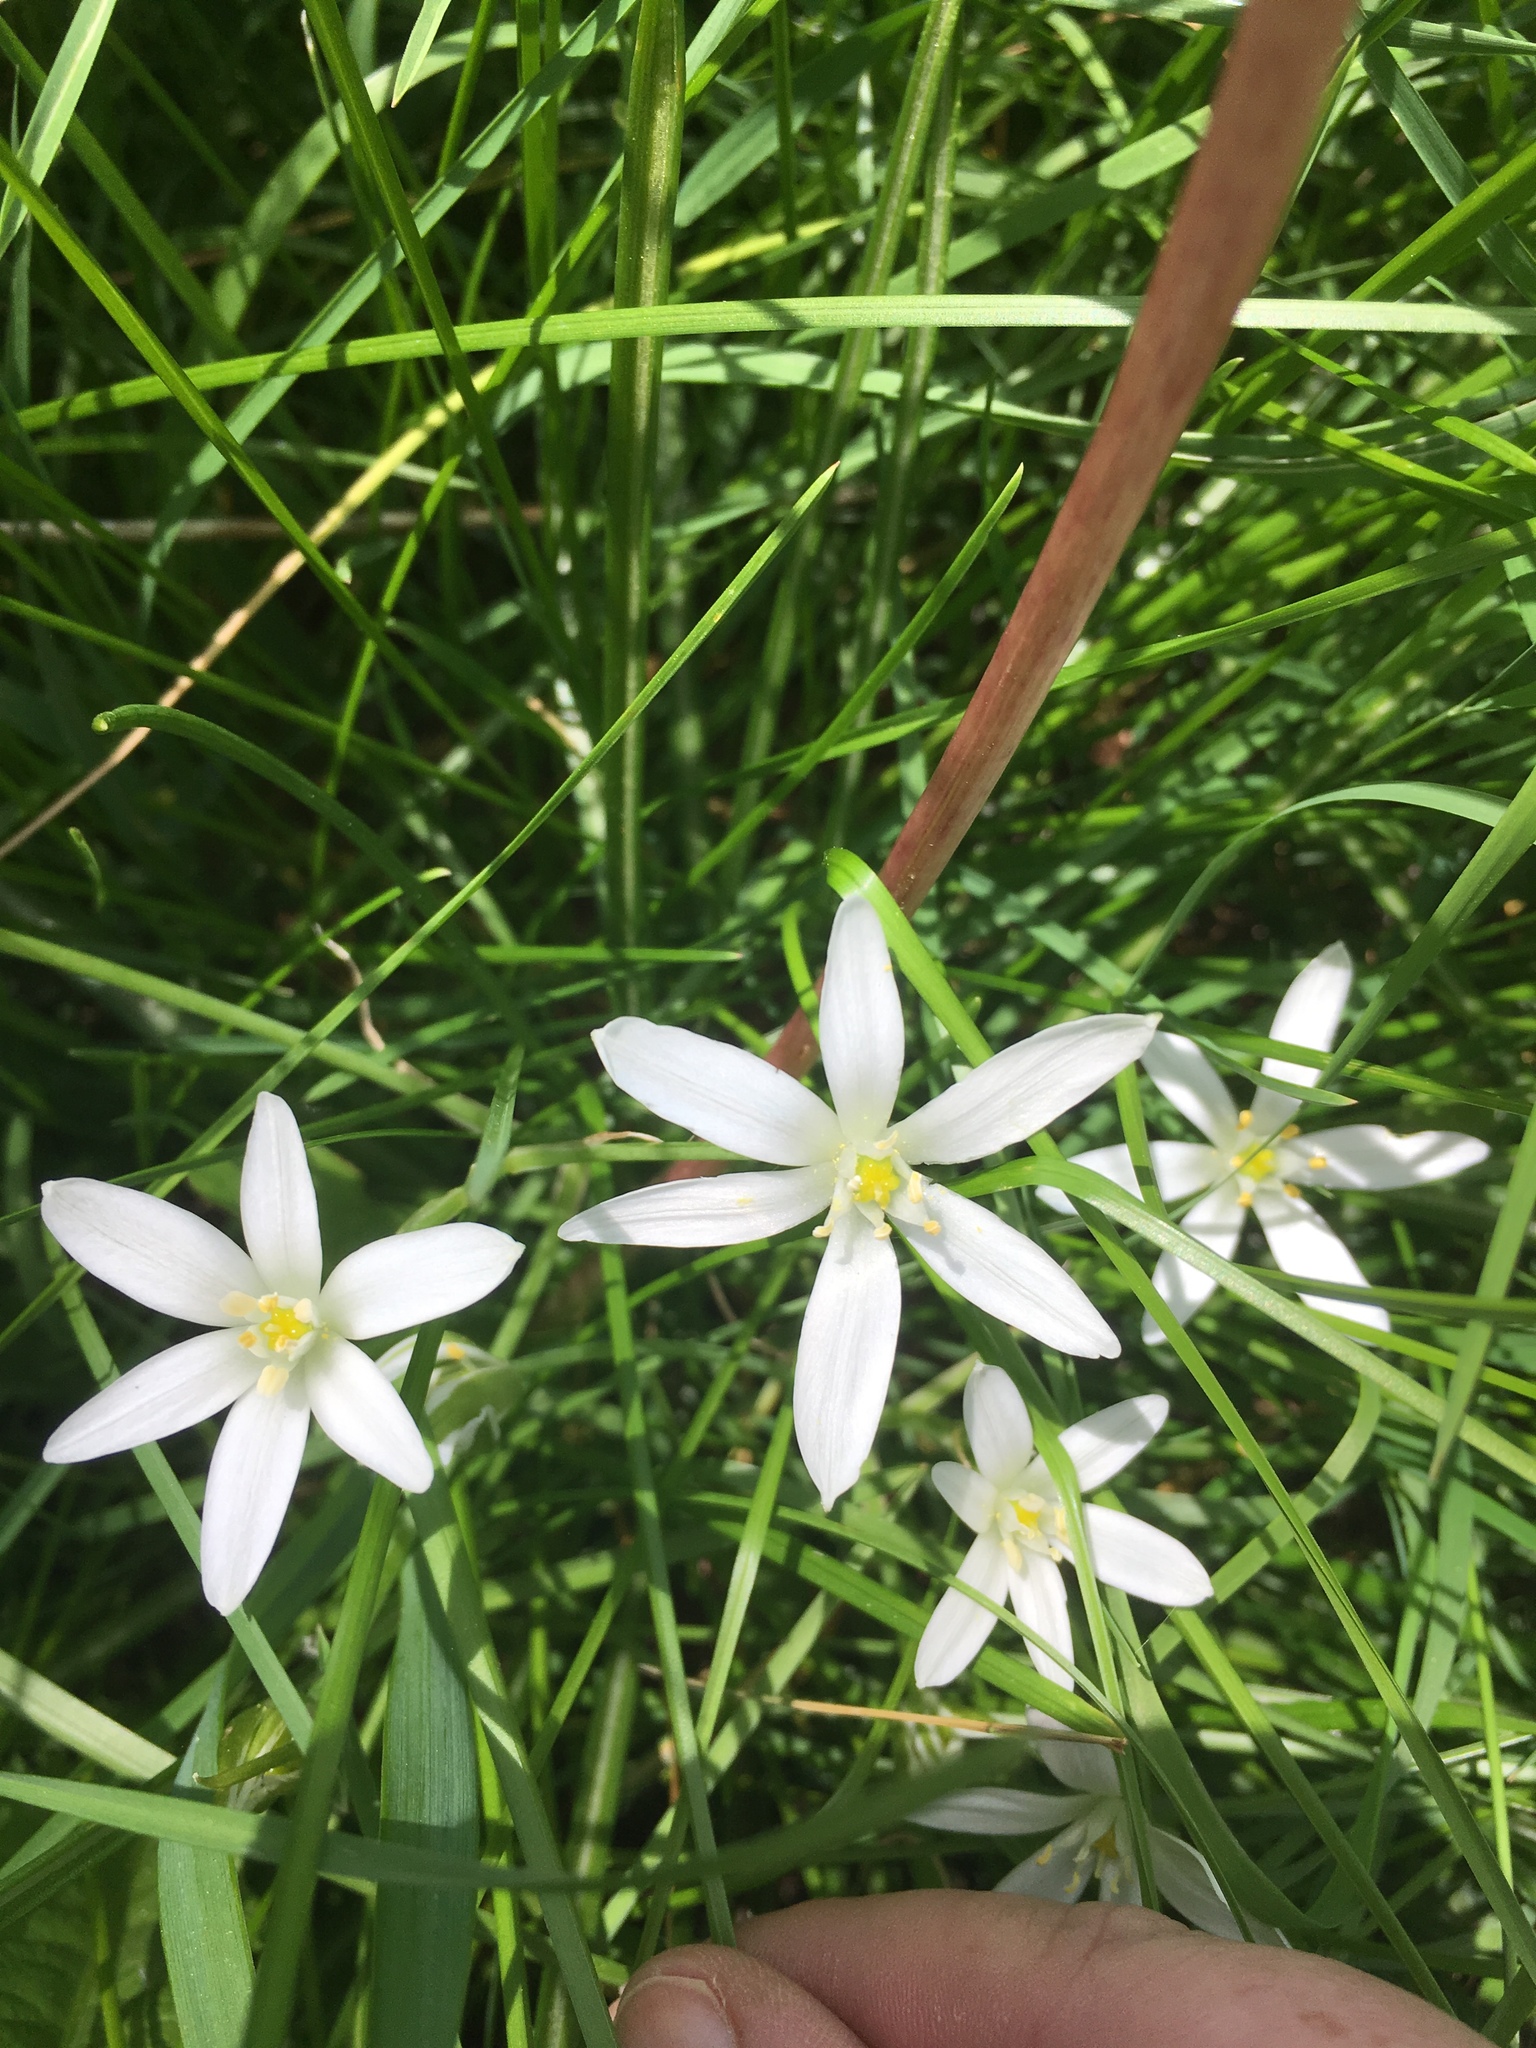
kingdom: Plantae
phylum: Tracheophyta
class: Liliopsida
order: Asparagales
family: Asparagaceae
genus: Ornithogalum
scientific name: Ornithogalum umbellatum
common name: Garden star-of-bethlehem
